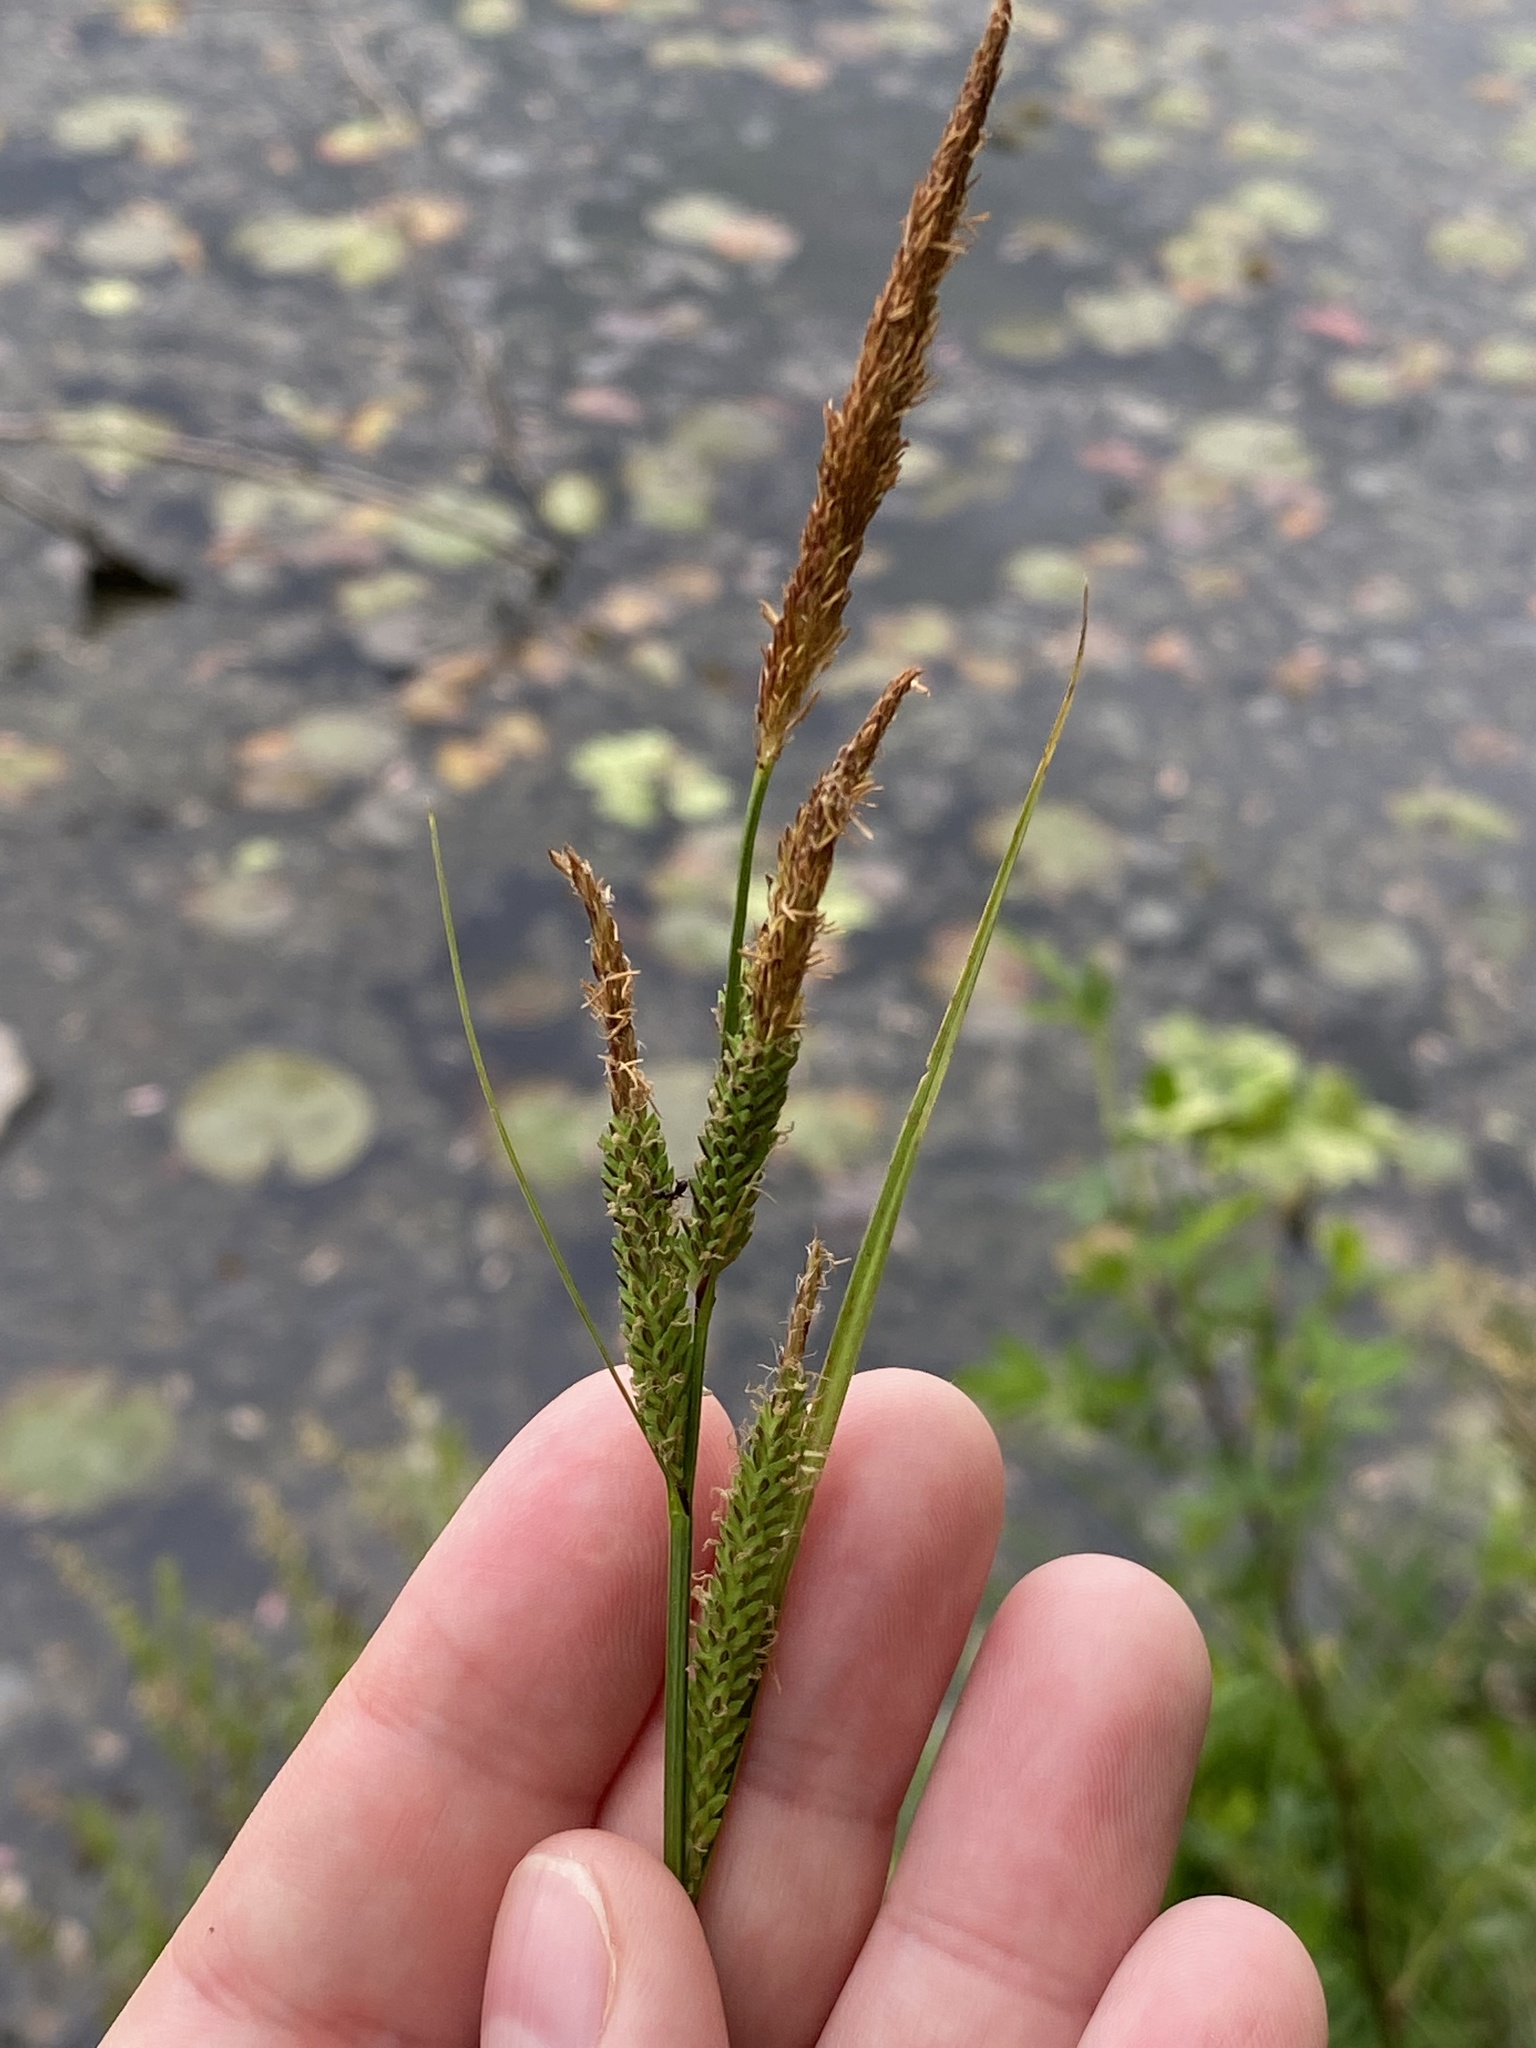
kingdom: Plantae
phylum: Tracheophyta
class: Liliopsida
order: Poales
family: Cyperaceae
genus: Carex
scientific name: Carex stricta
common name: Hummock sedge
